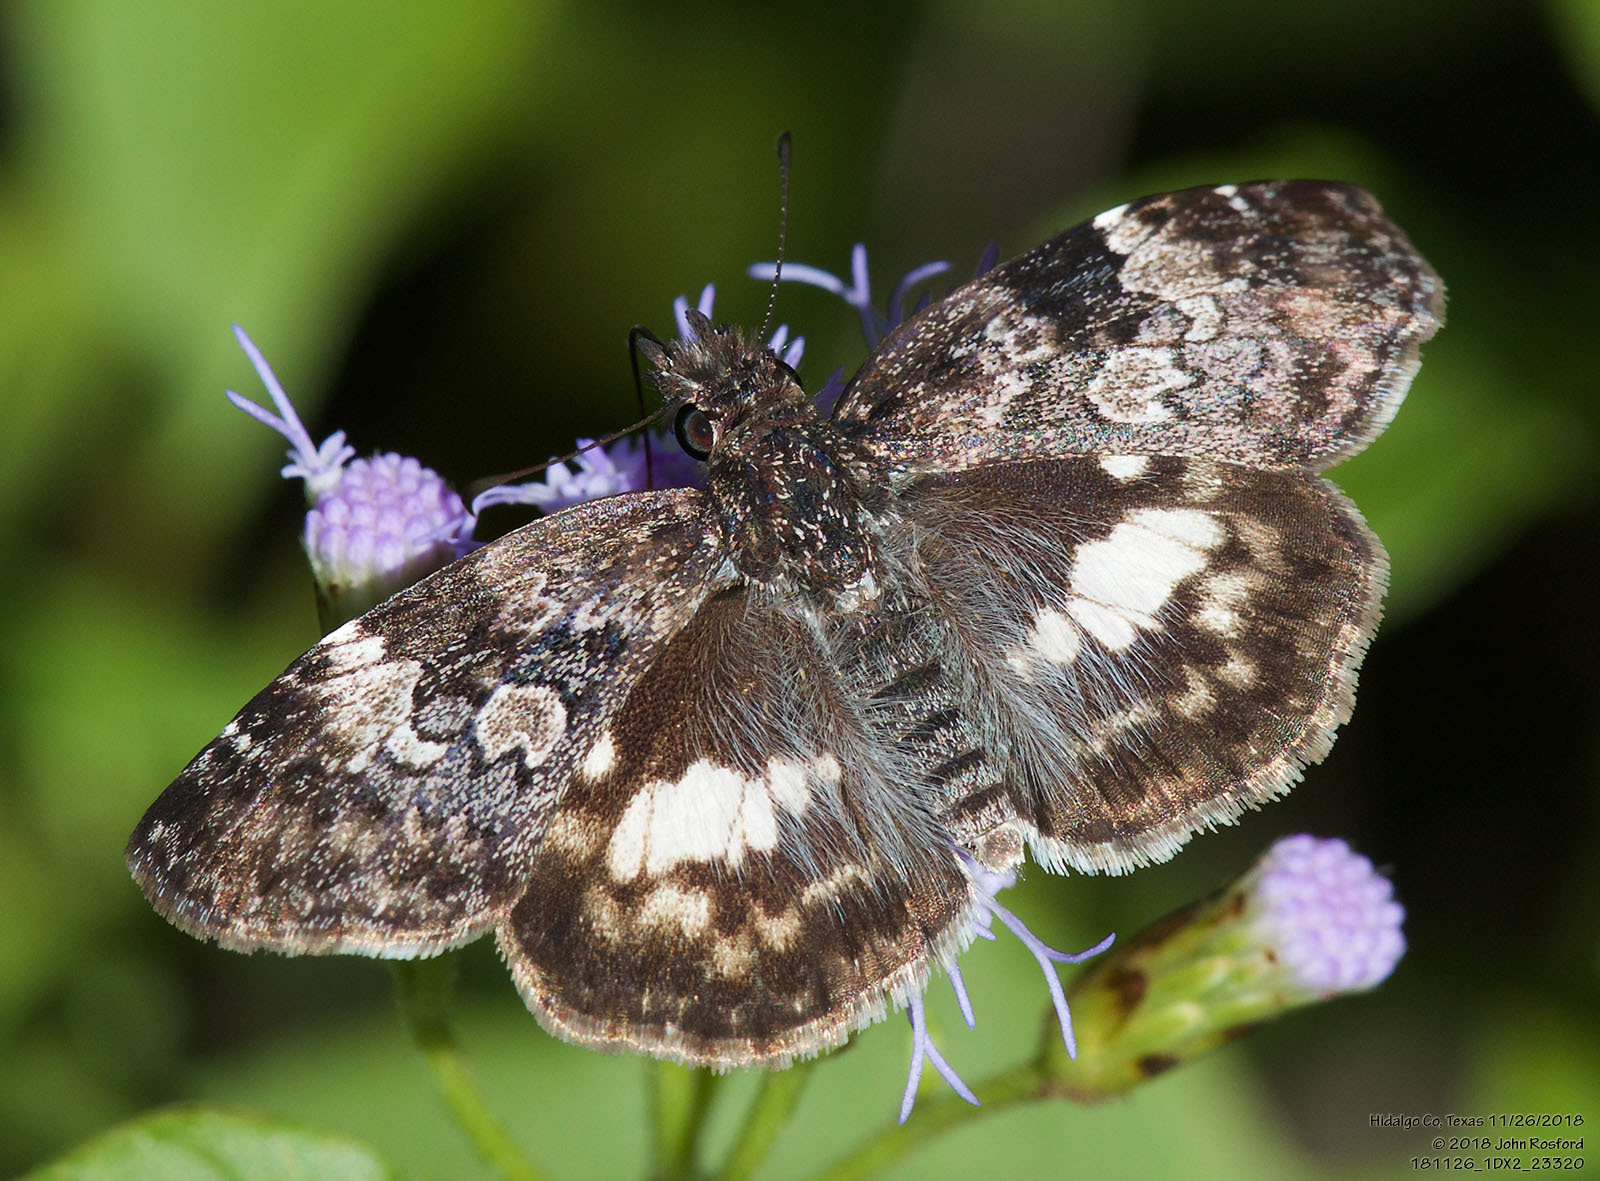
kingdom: Animalia
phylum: Arthropoda
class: Insecta
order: Lepidoptera
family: Hesperiidae
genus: Chiothion
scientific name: Chiothion georgina
